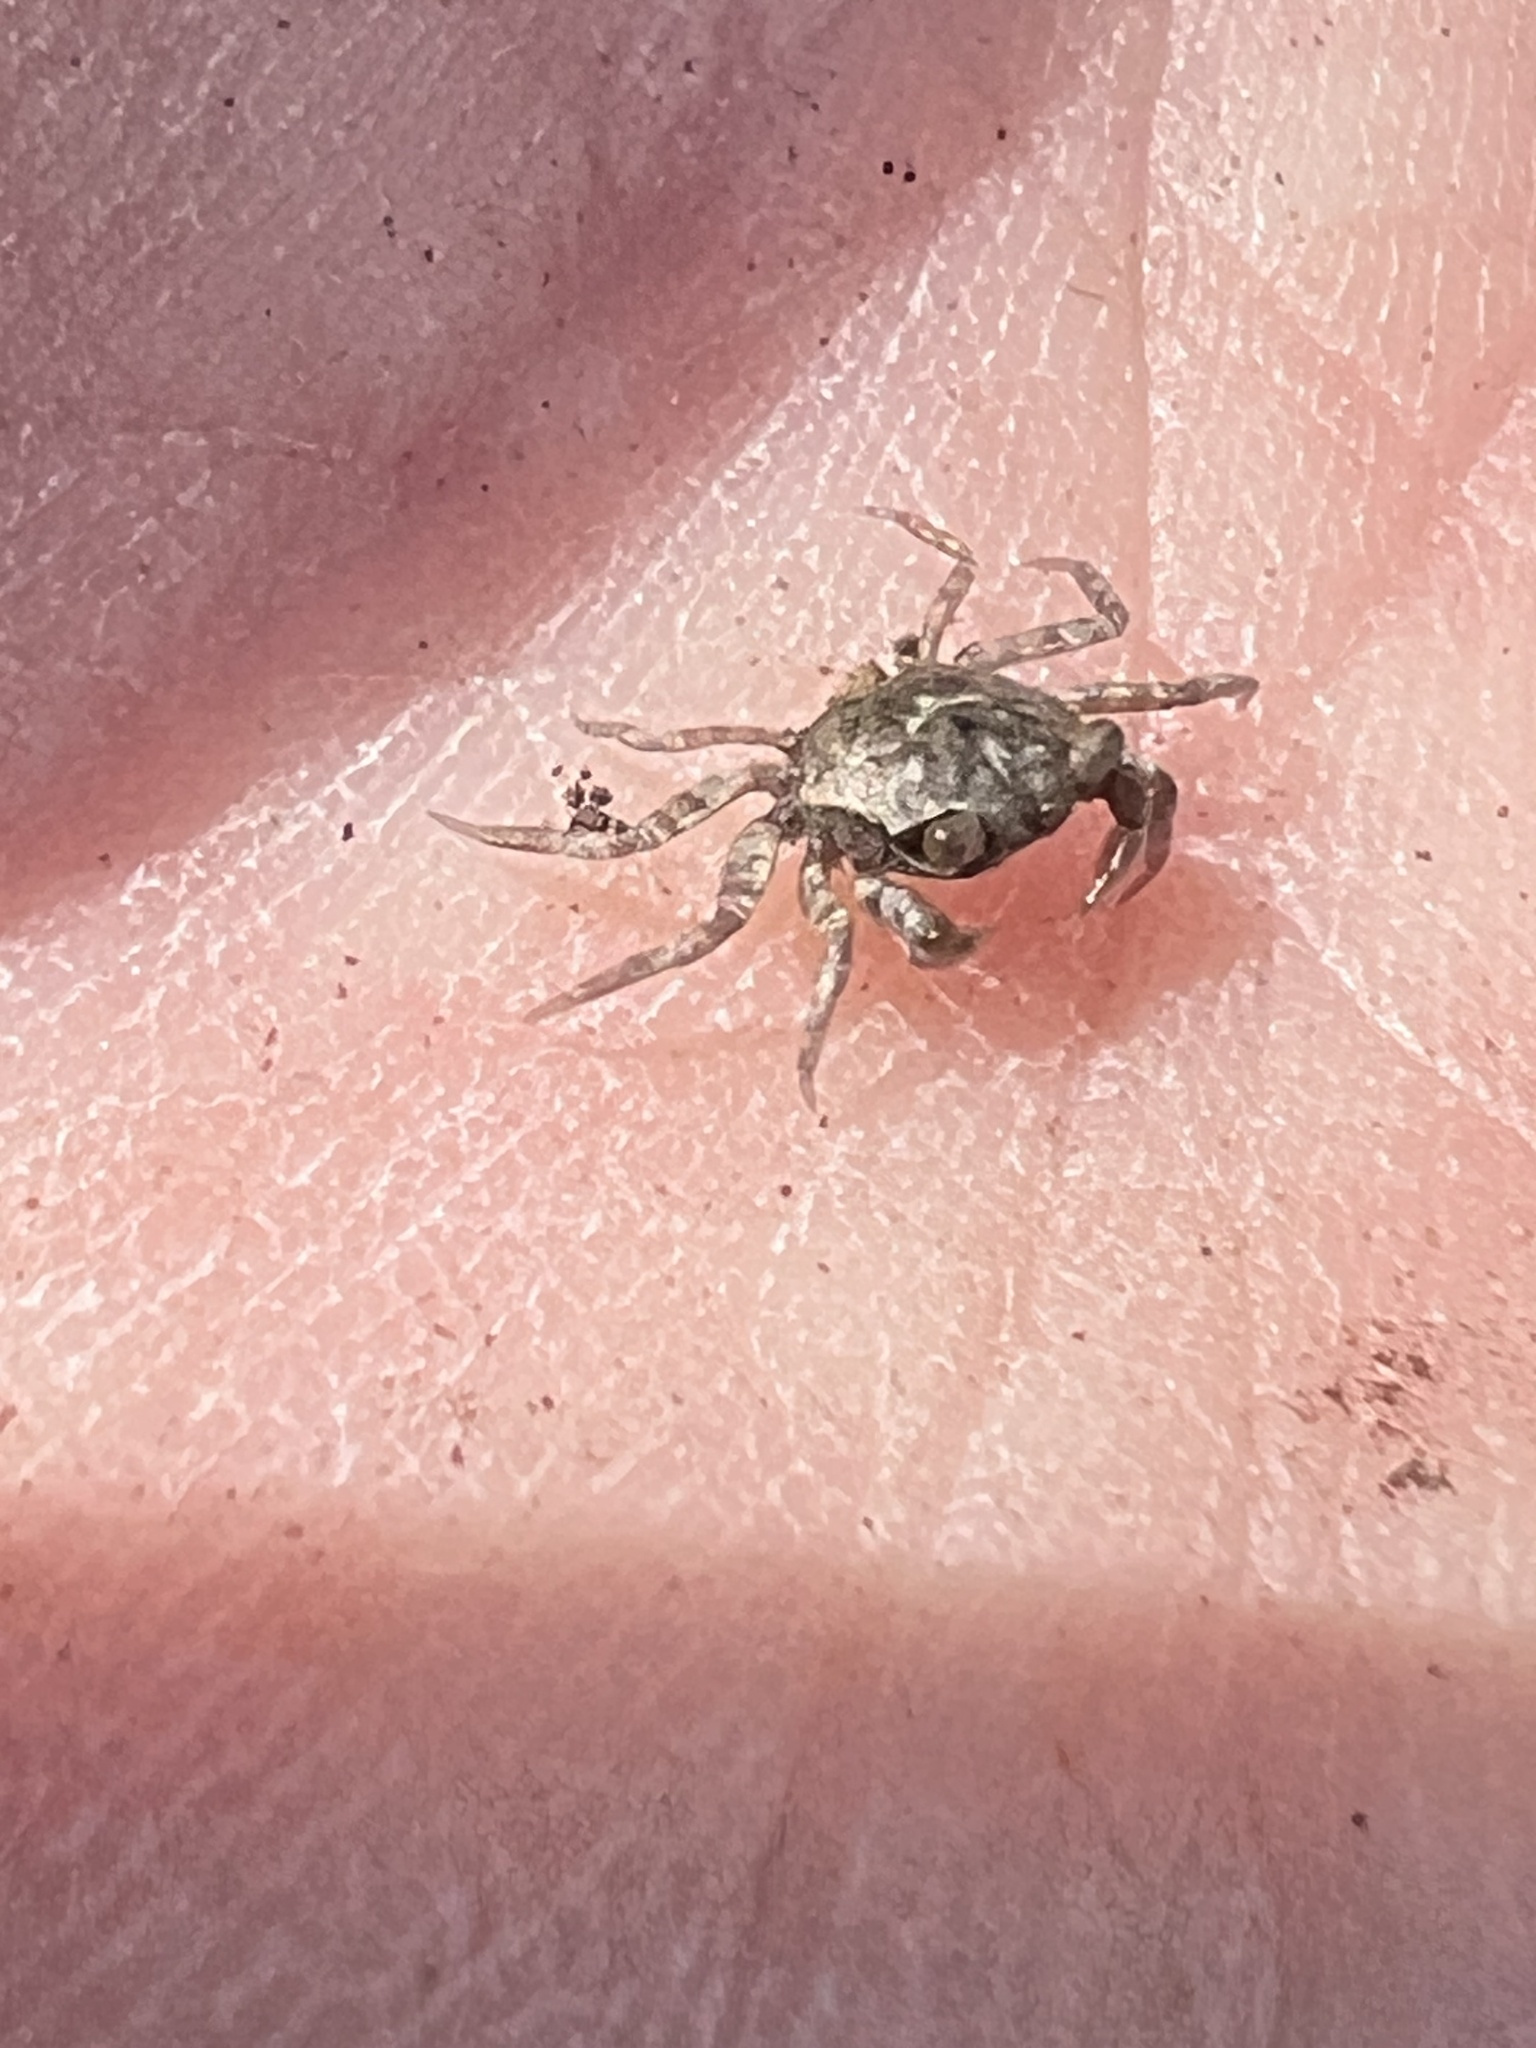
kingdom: Animalia
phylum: Arthropoda
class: Malacostraca
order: Decapoda
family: Varunidae
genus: Austrohelice
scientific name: Austrohelice crassa
